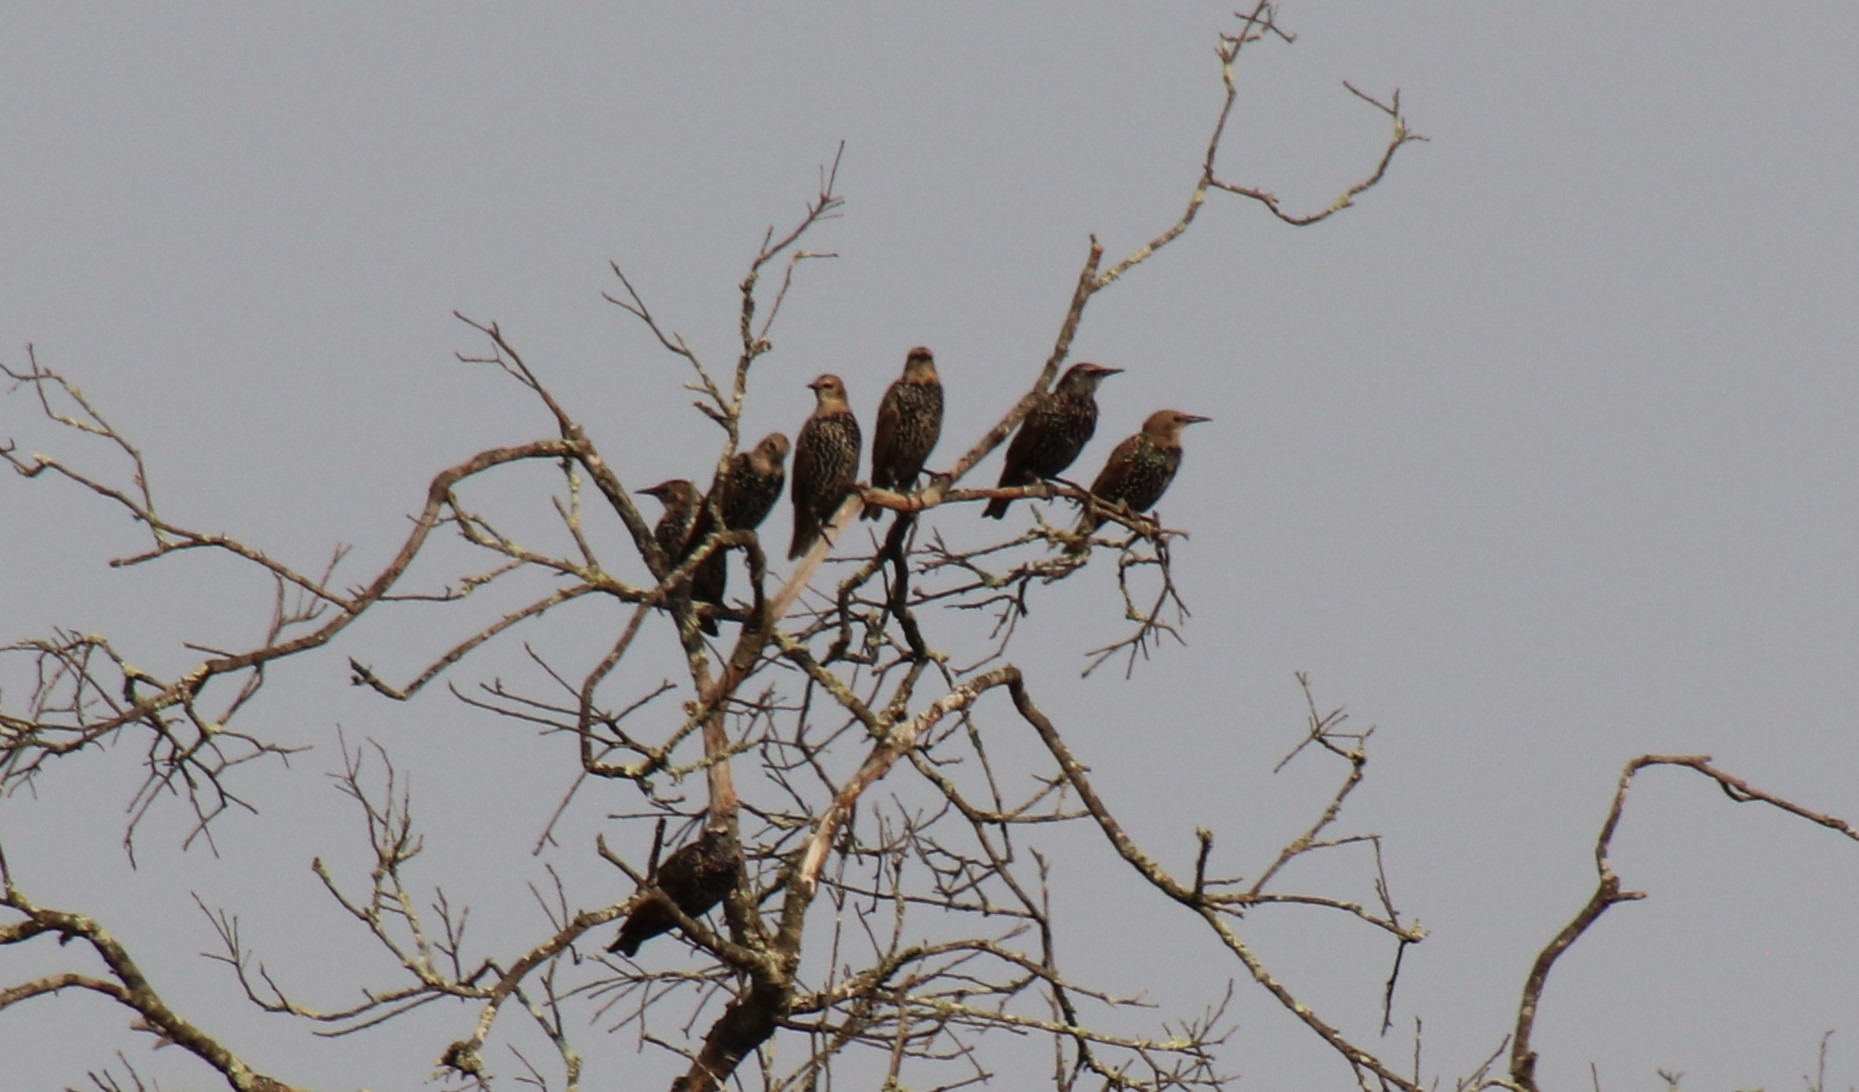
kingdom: Animalia
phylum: Chordata
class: Aves
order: Passeriformes
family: Sturnidae
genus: Sturnus
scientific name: Sturnus vulgaris
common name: Common starling
